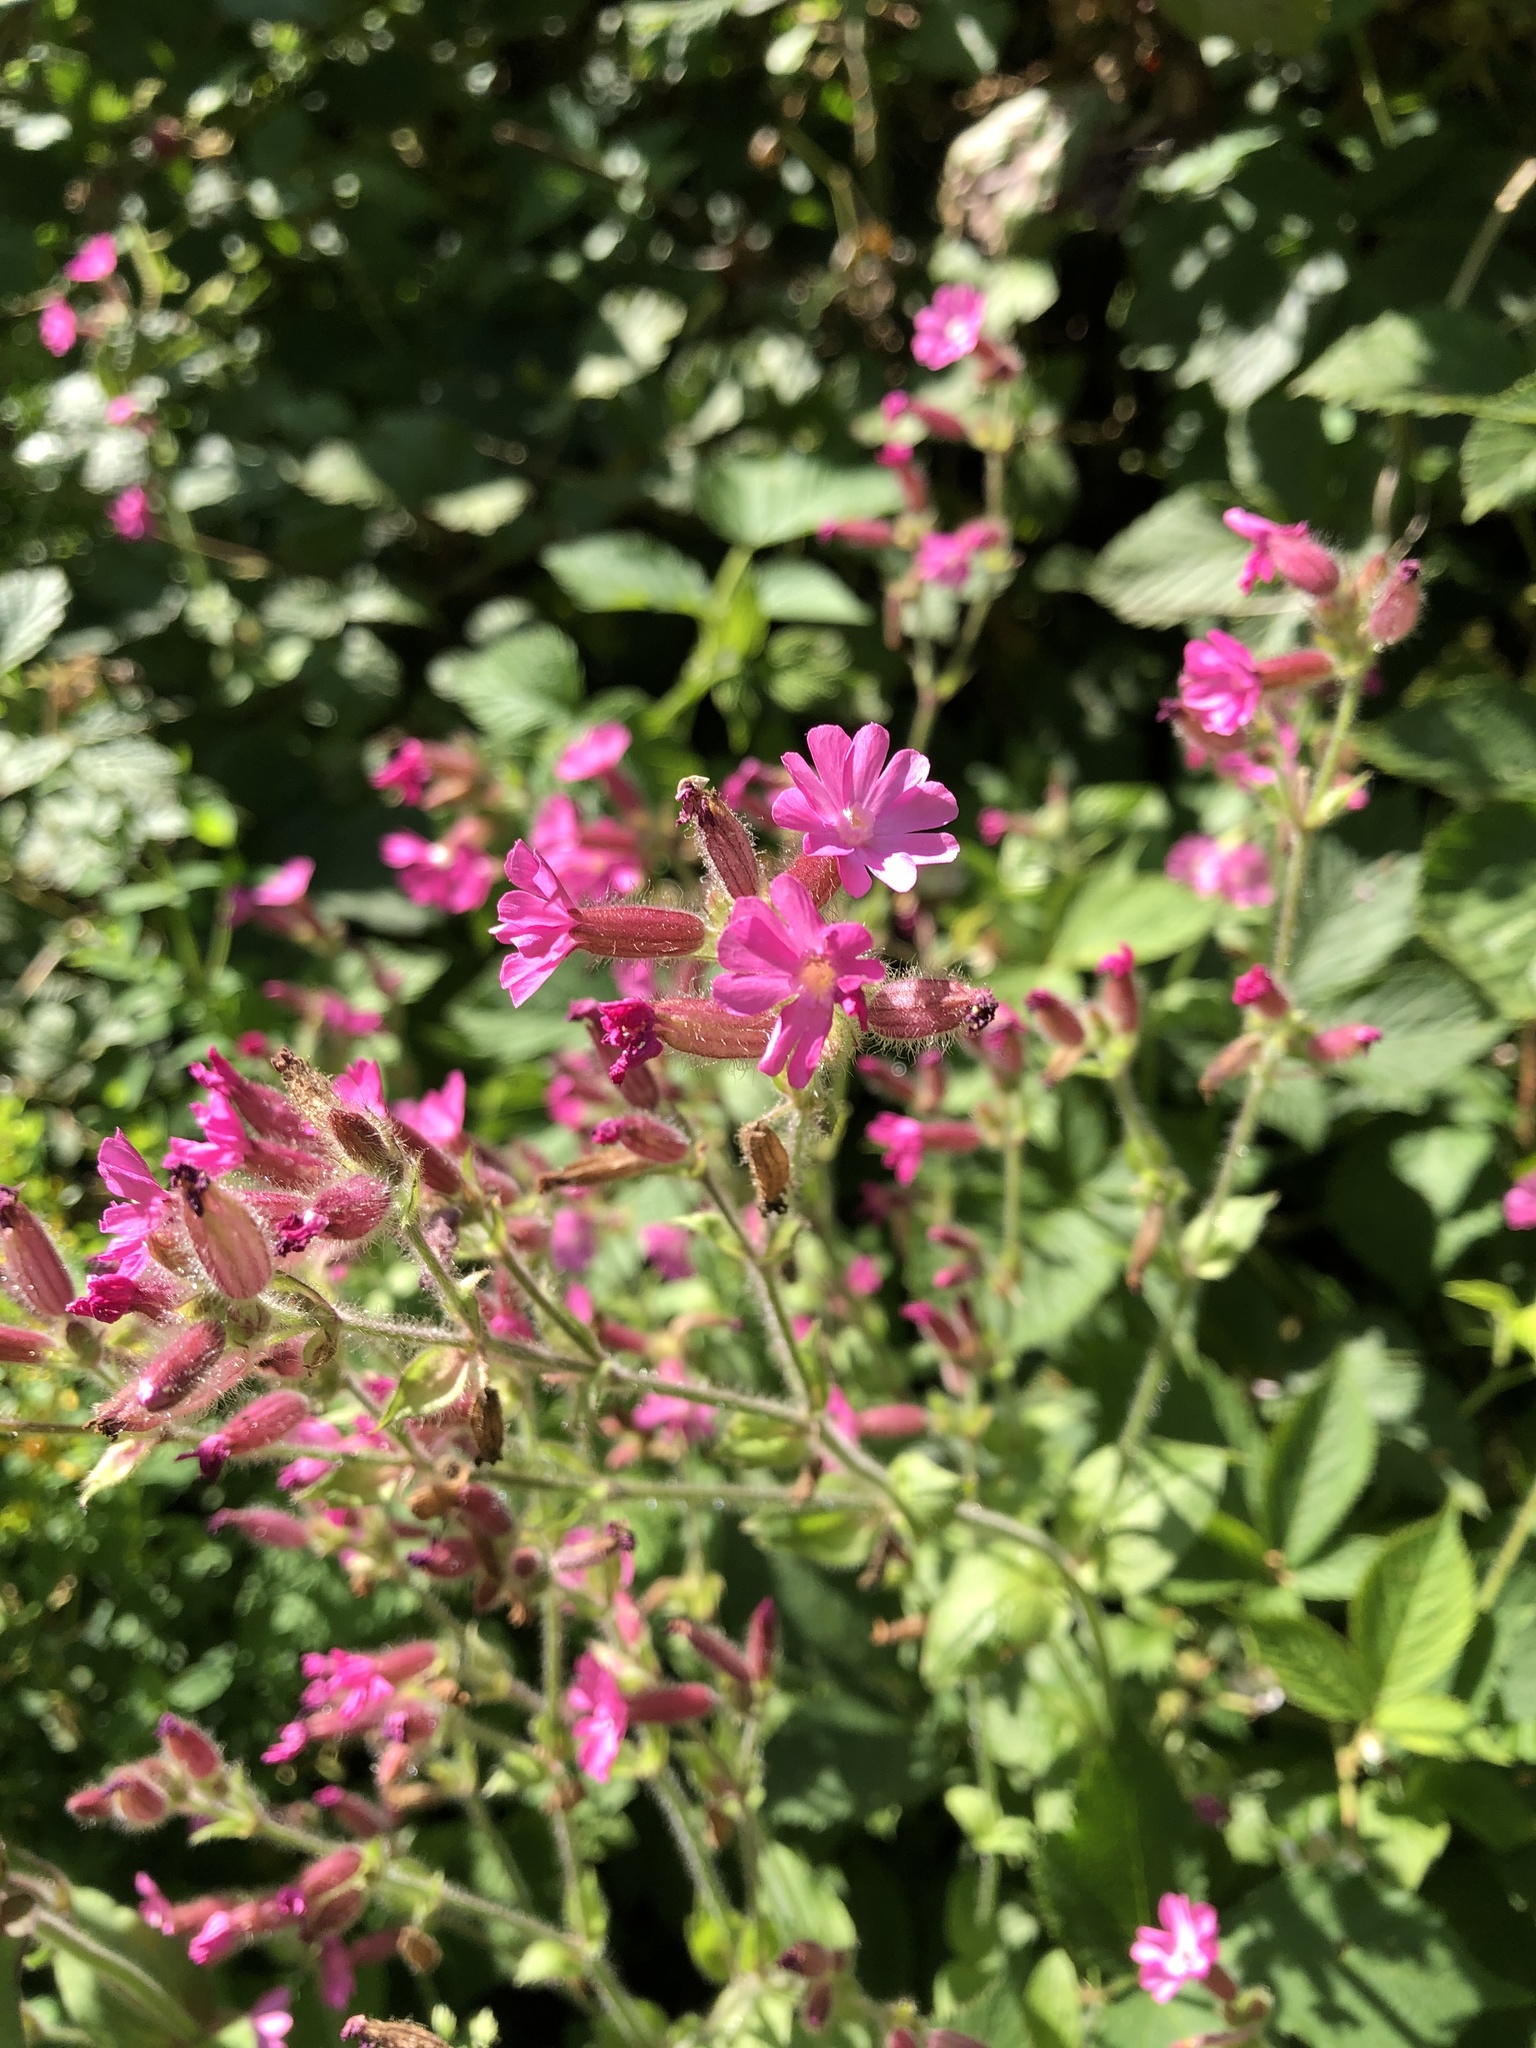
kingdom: Plantae
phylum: Tracheophyta
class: Magnoliopsida
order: Caryophyllales
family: Caryophyllaceae
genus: Silene
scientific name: Silene dioica
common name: Red campion
